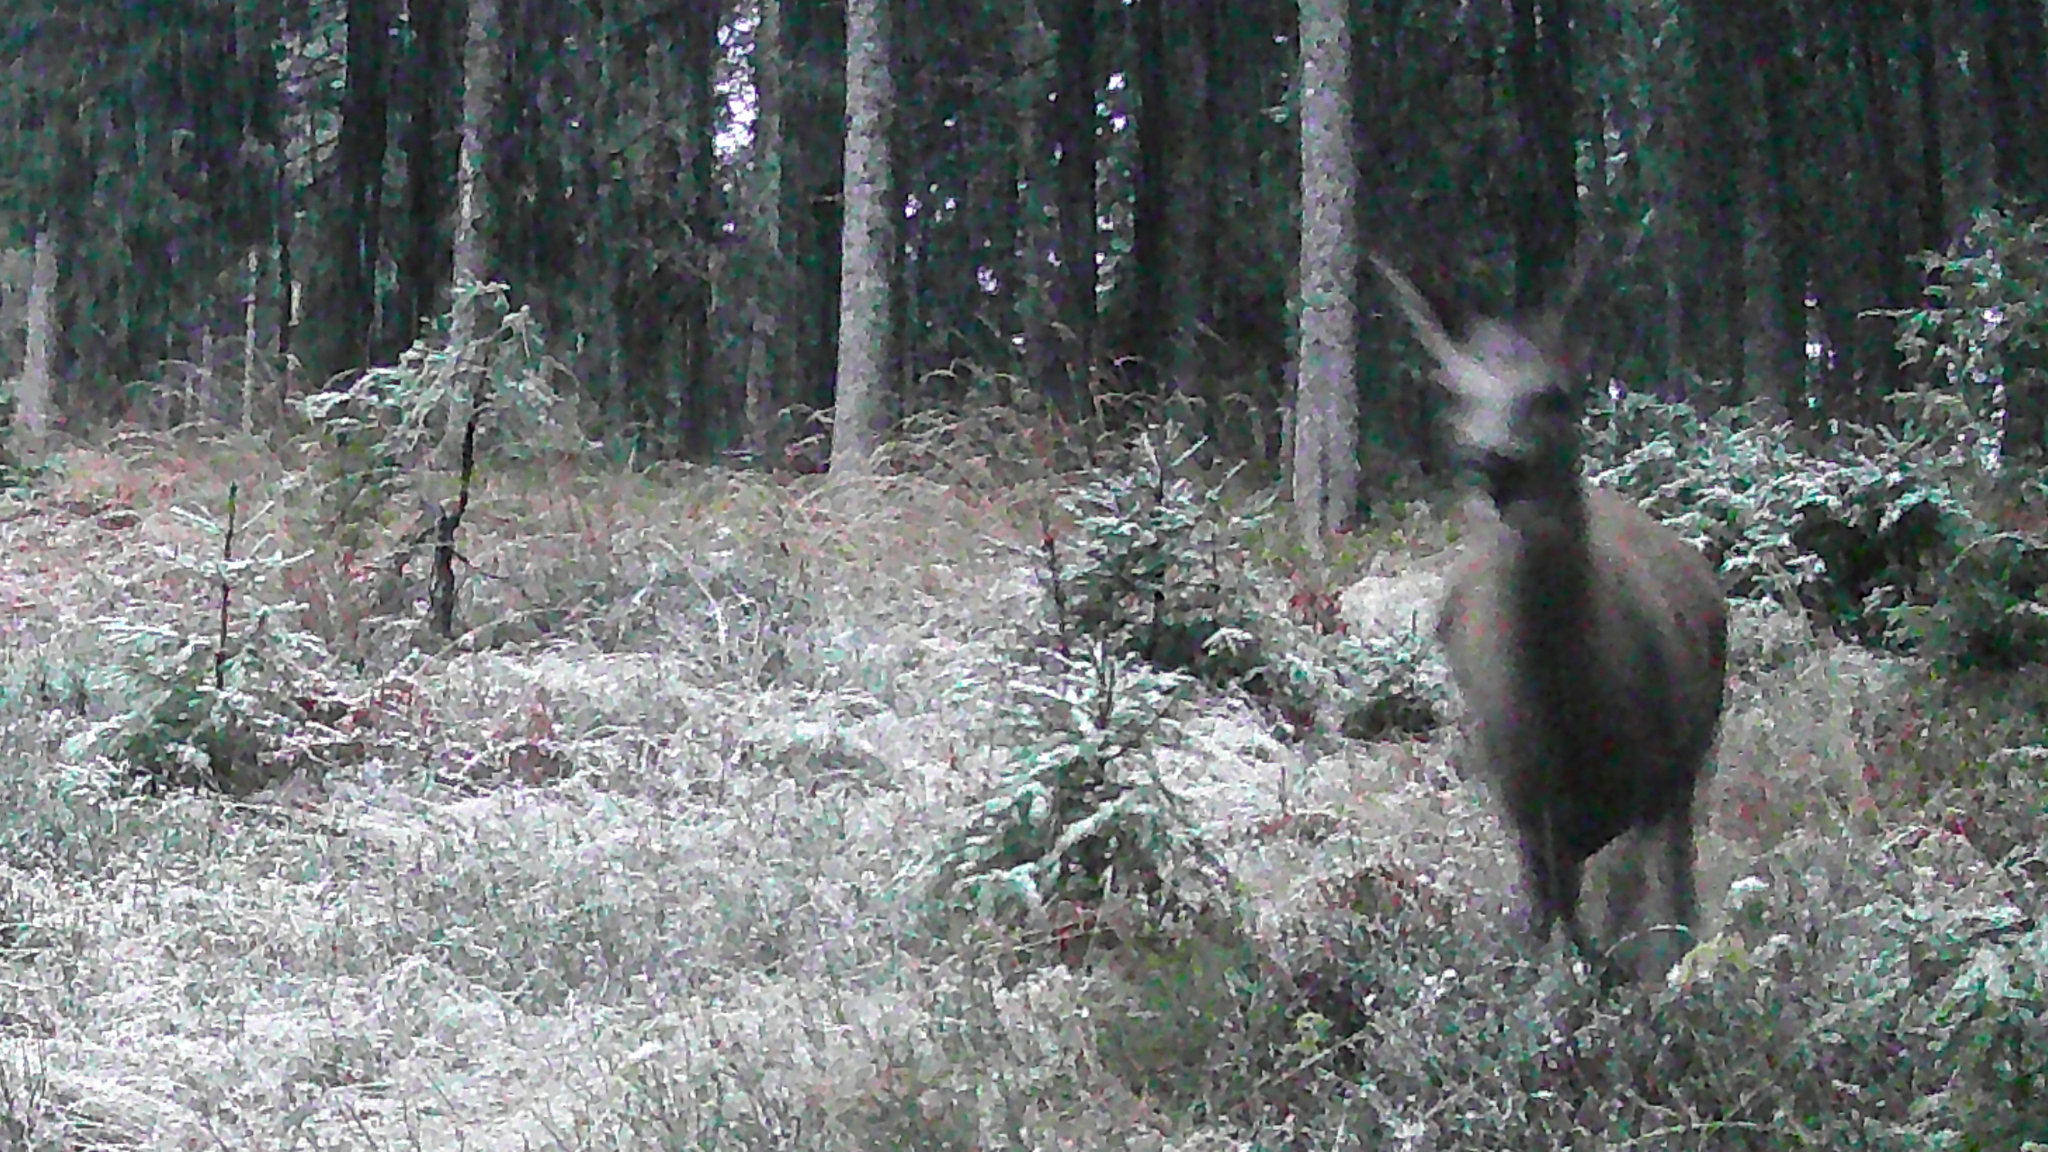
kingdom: Animalia
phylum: Chordata
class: Mammalia
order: Artiodactyla
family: Cervidae
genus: Capreolus
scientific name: Capreolus capreolus
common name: Western roe deer
